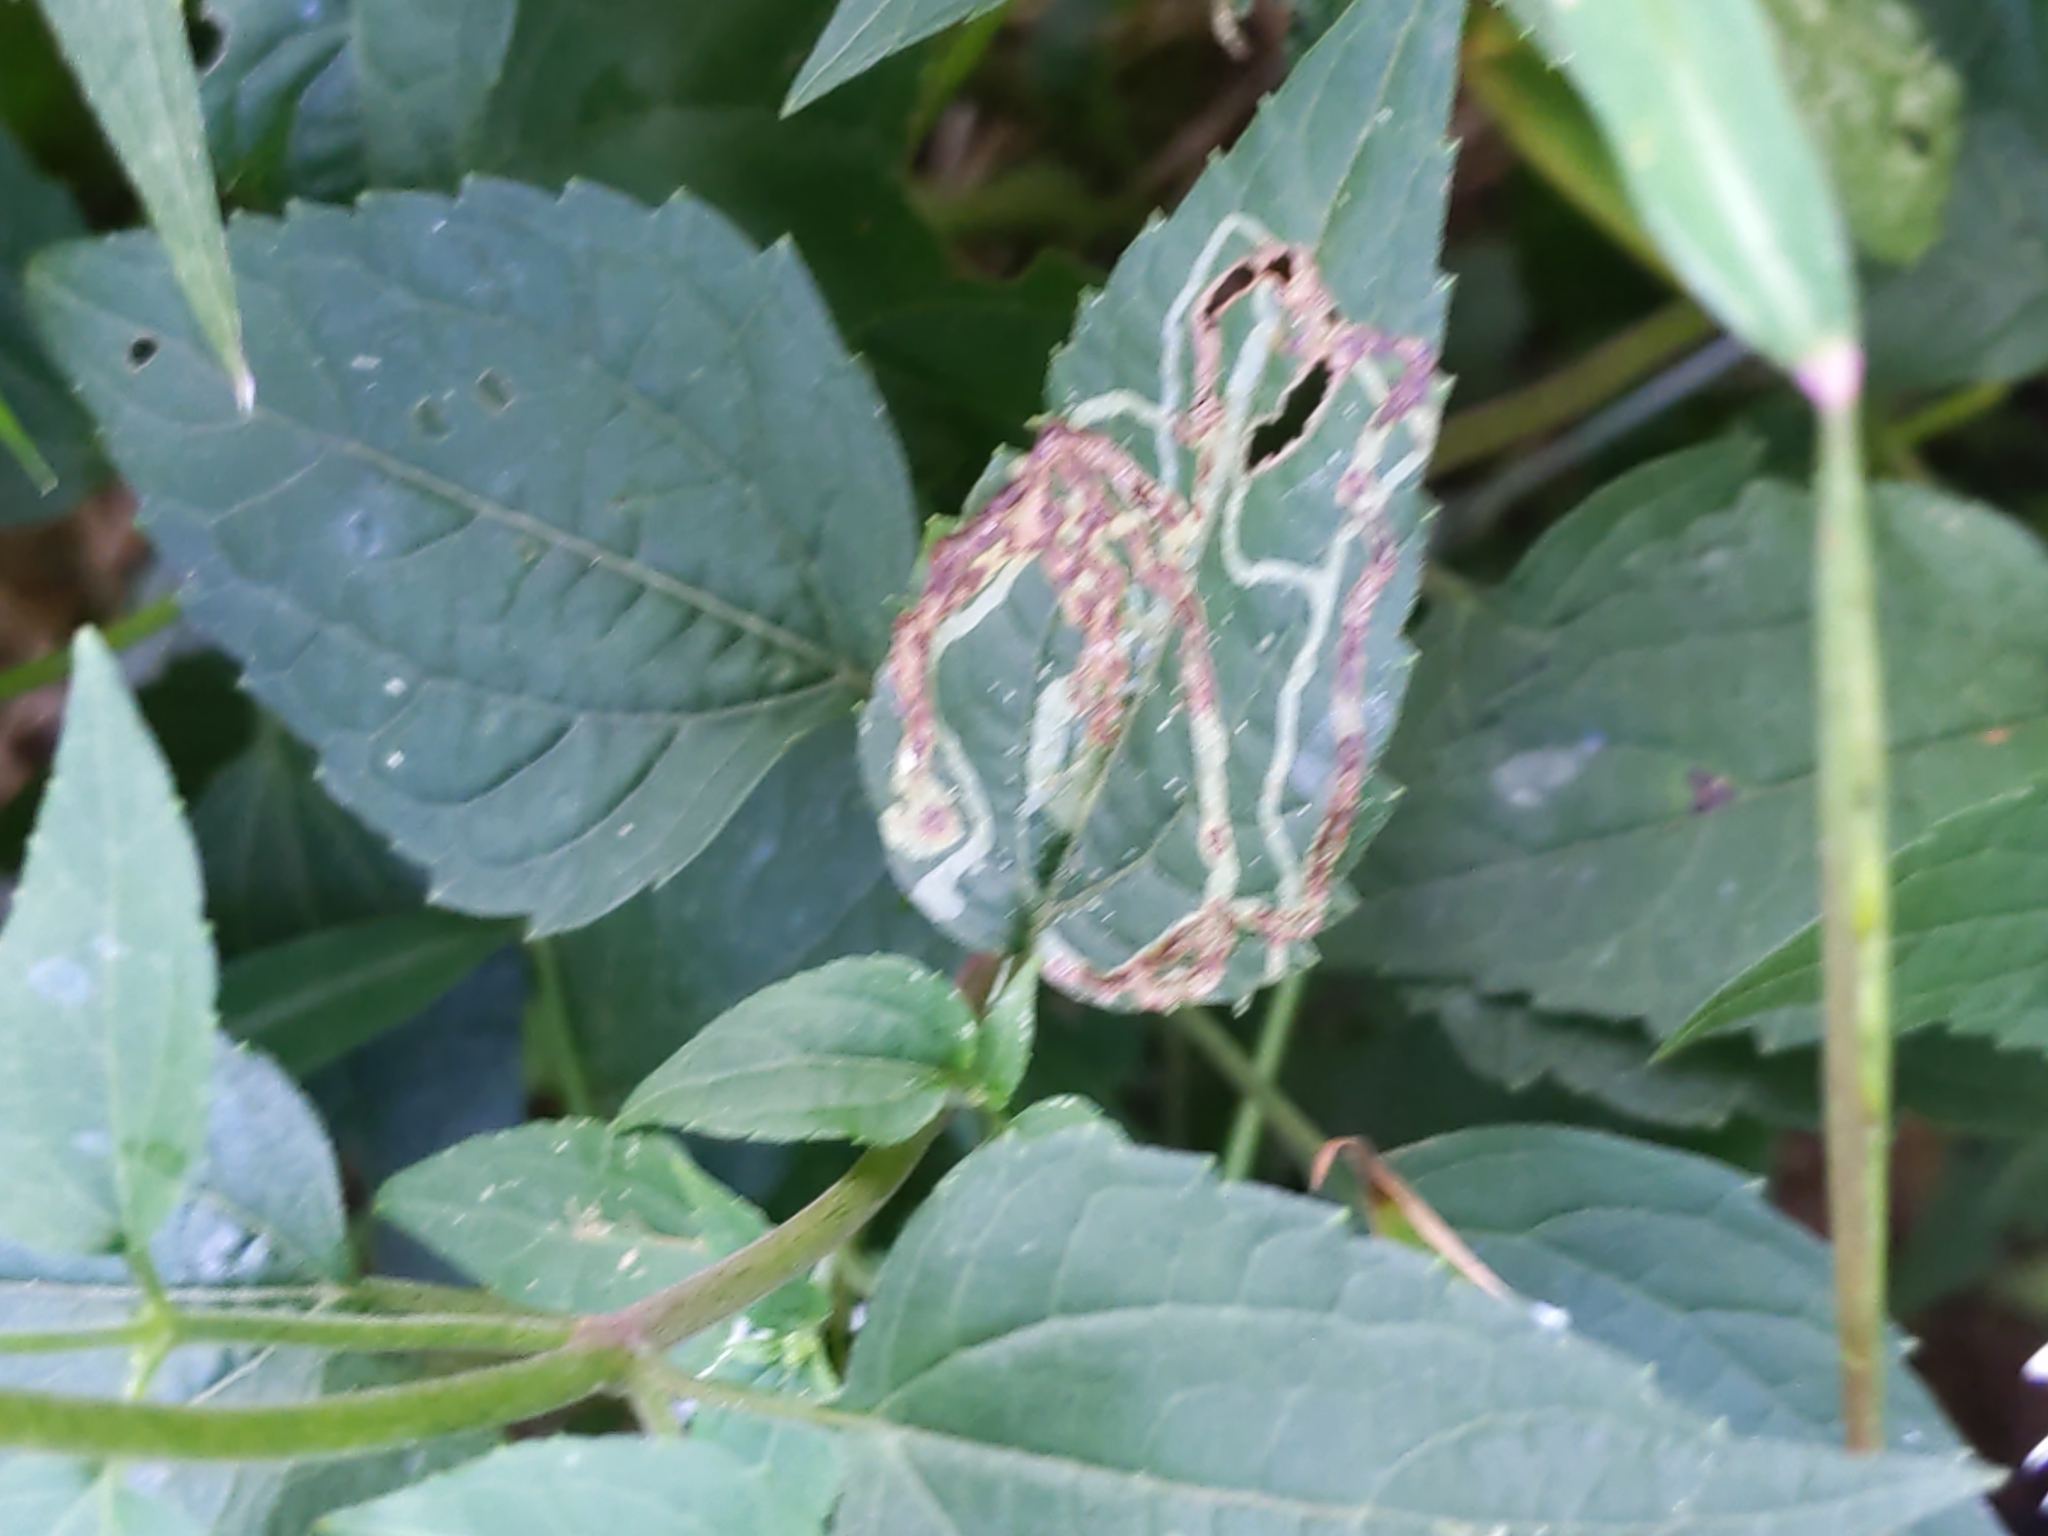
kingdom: Animalia
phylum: Arthropoda
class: Insecta
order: Diptera
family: Agromyzidae
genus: Liriomyza
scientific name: Liriomyza
